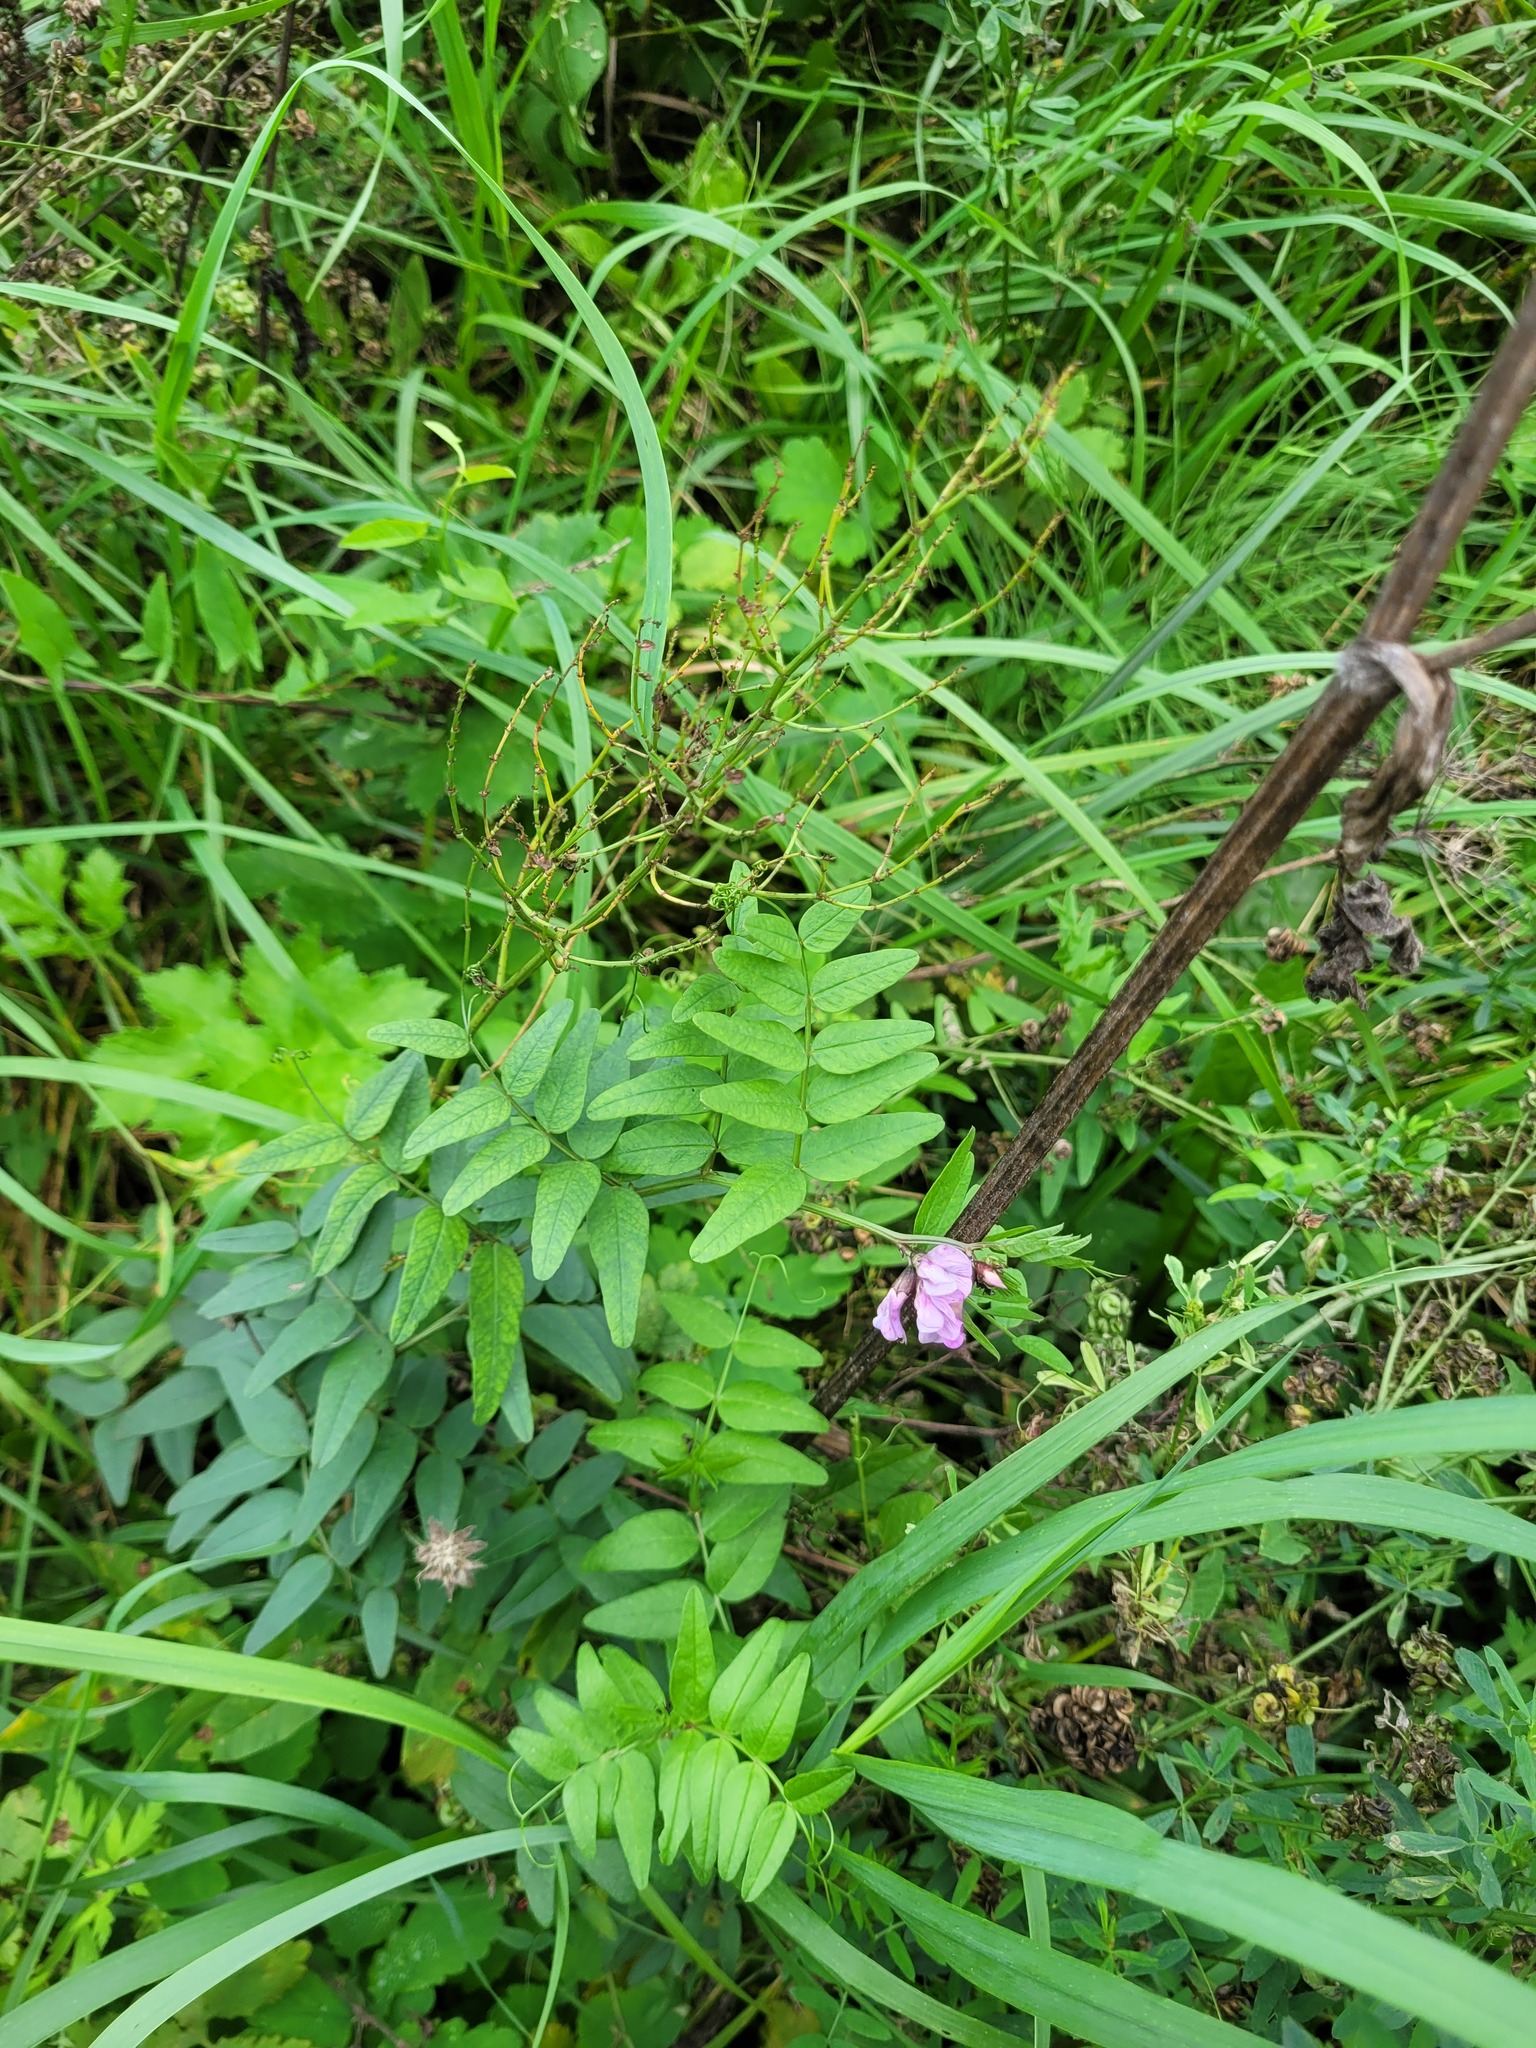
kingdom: Plantae
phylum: Tracheophyta
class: Magnoliopsida
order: Fabales
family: Fabaceae
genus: Vicia
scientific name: Vicia sepium
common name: Bush vetch
